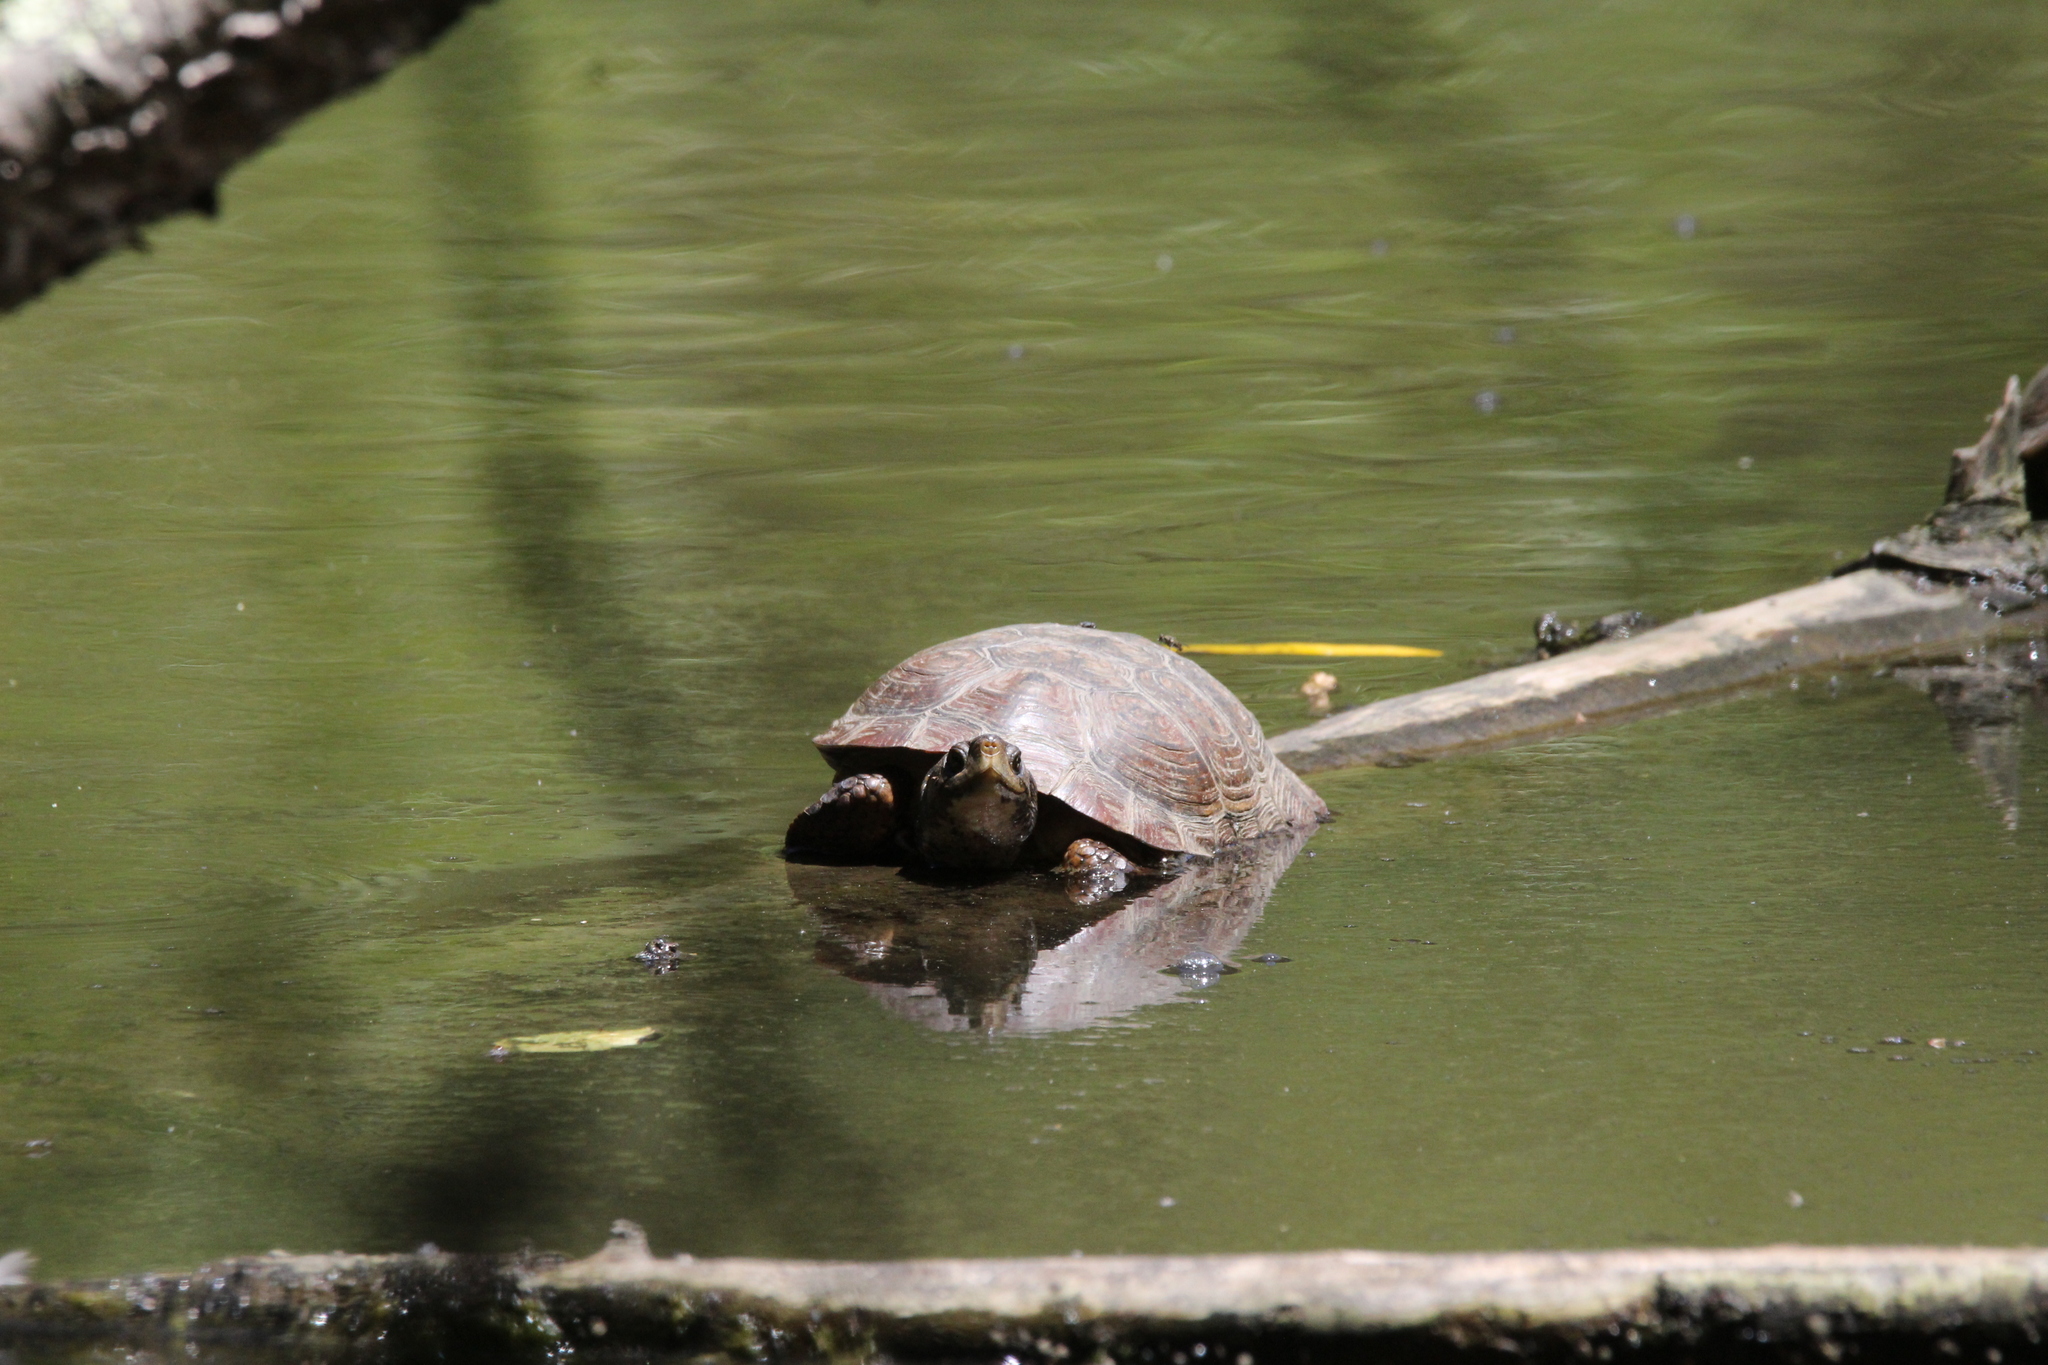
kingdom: Animalia
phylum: Chordata
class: Testudines
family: Emydidae
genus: Actinemys
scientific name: Actinemys marmorata
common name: Western pond turtle
